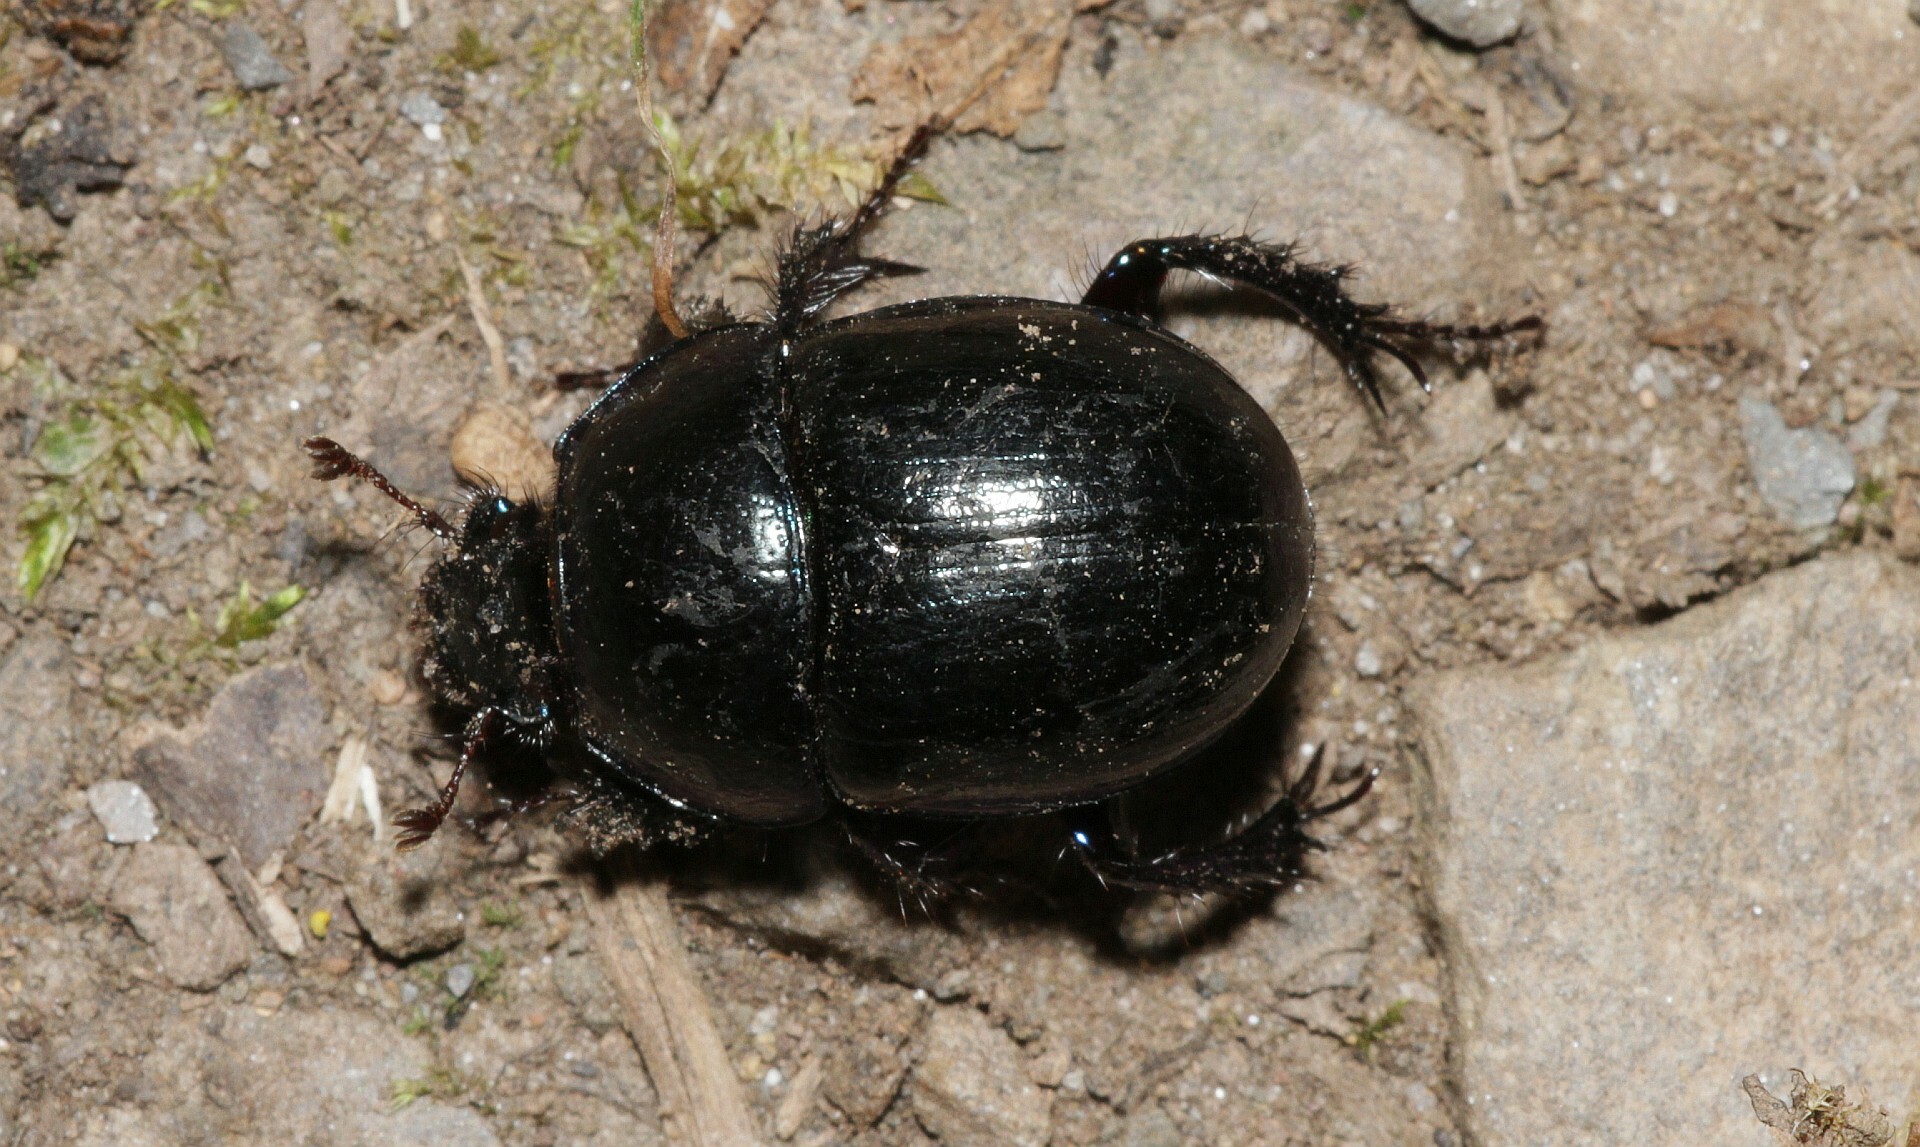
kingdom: Animalia
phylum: Arthropoda
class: Insecta
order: Coleoptera
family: Geotrupidae
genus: Anoplotrupes
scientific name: Anoplotrupes stercorosus
